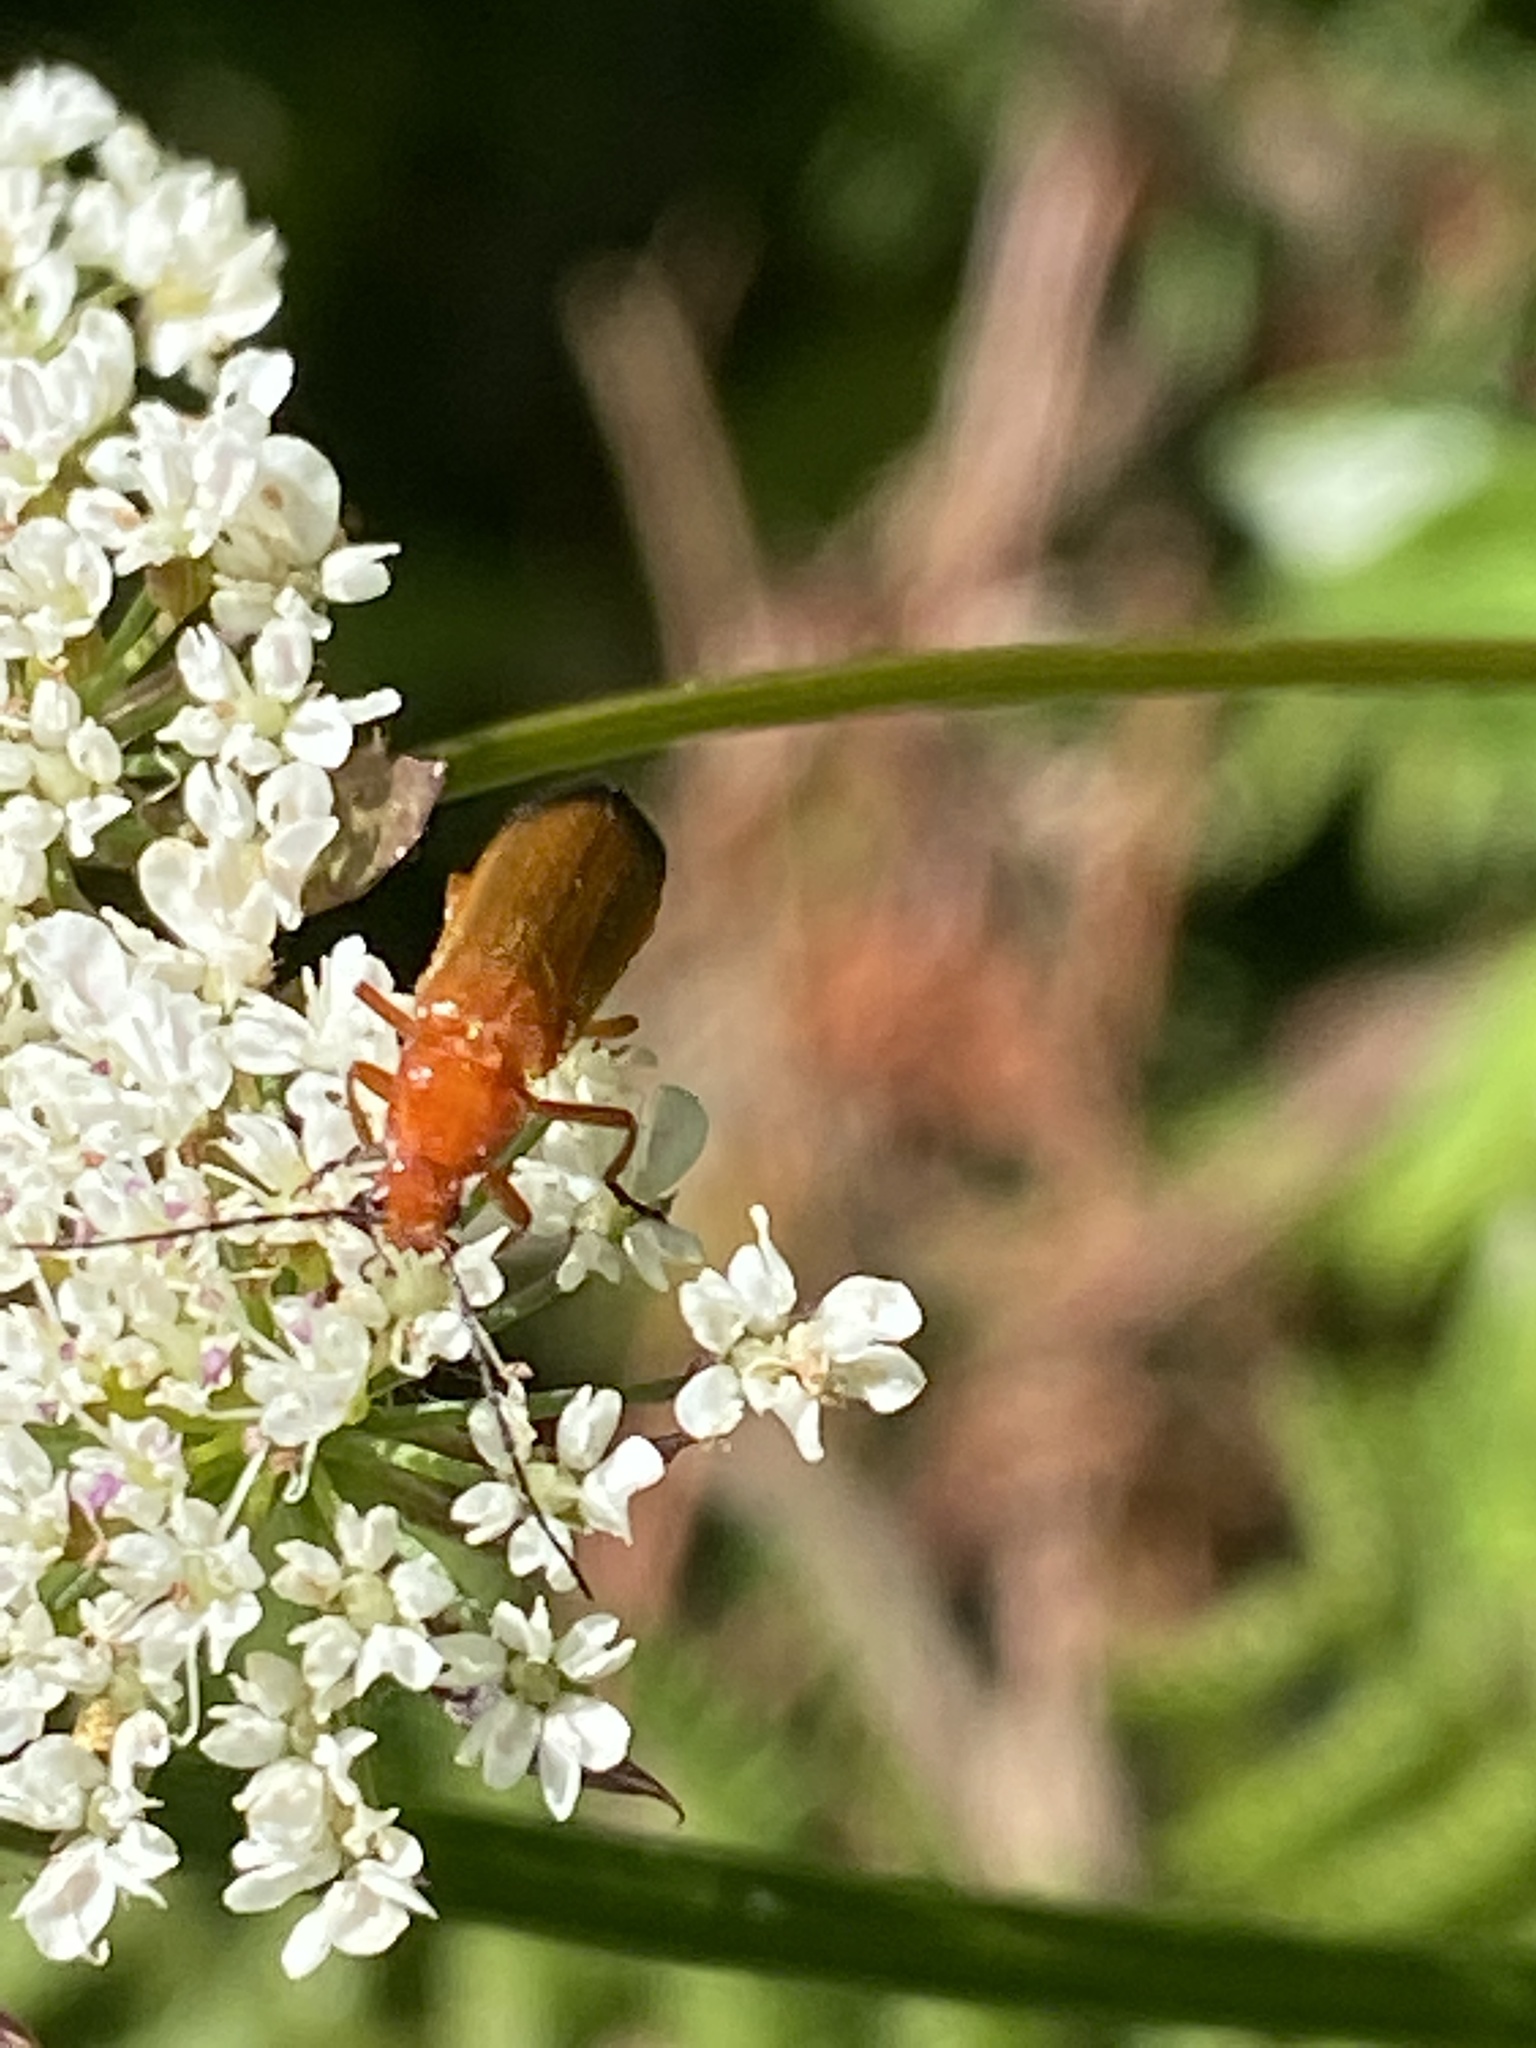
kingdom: Animalia
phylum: Arthropoda
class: Insecta
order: Coleoptera
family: Cantharidae
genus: Rhagonycha
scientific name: Rhagonycha fulva
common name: Common red soldier beetle
